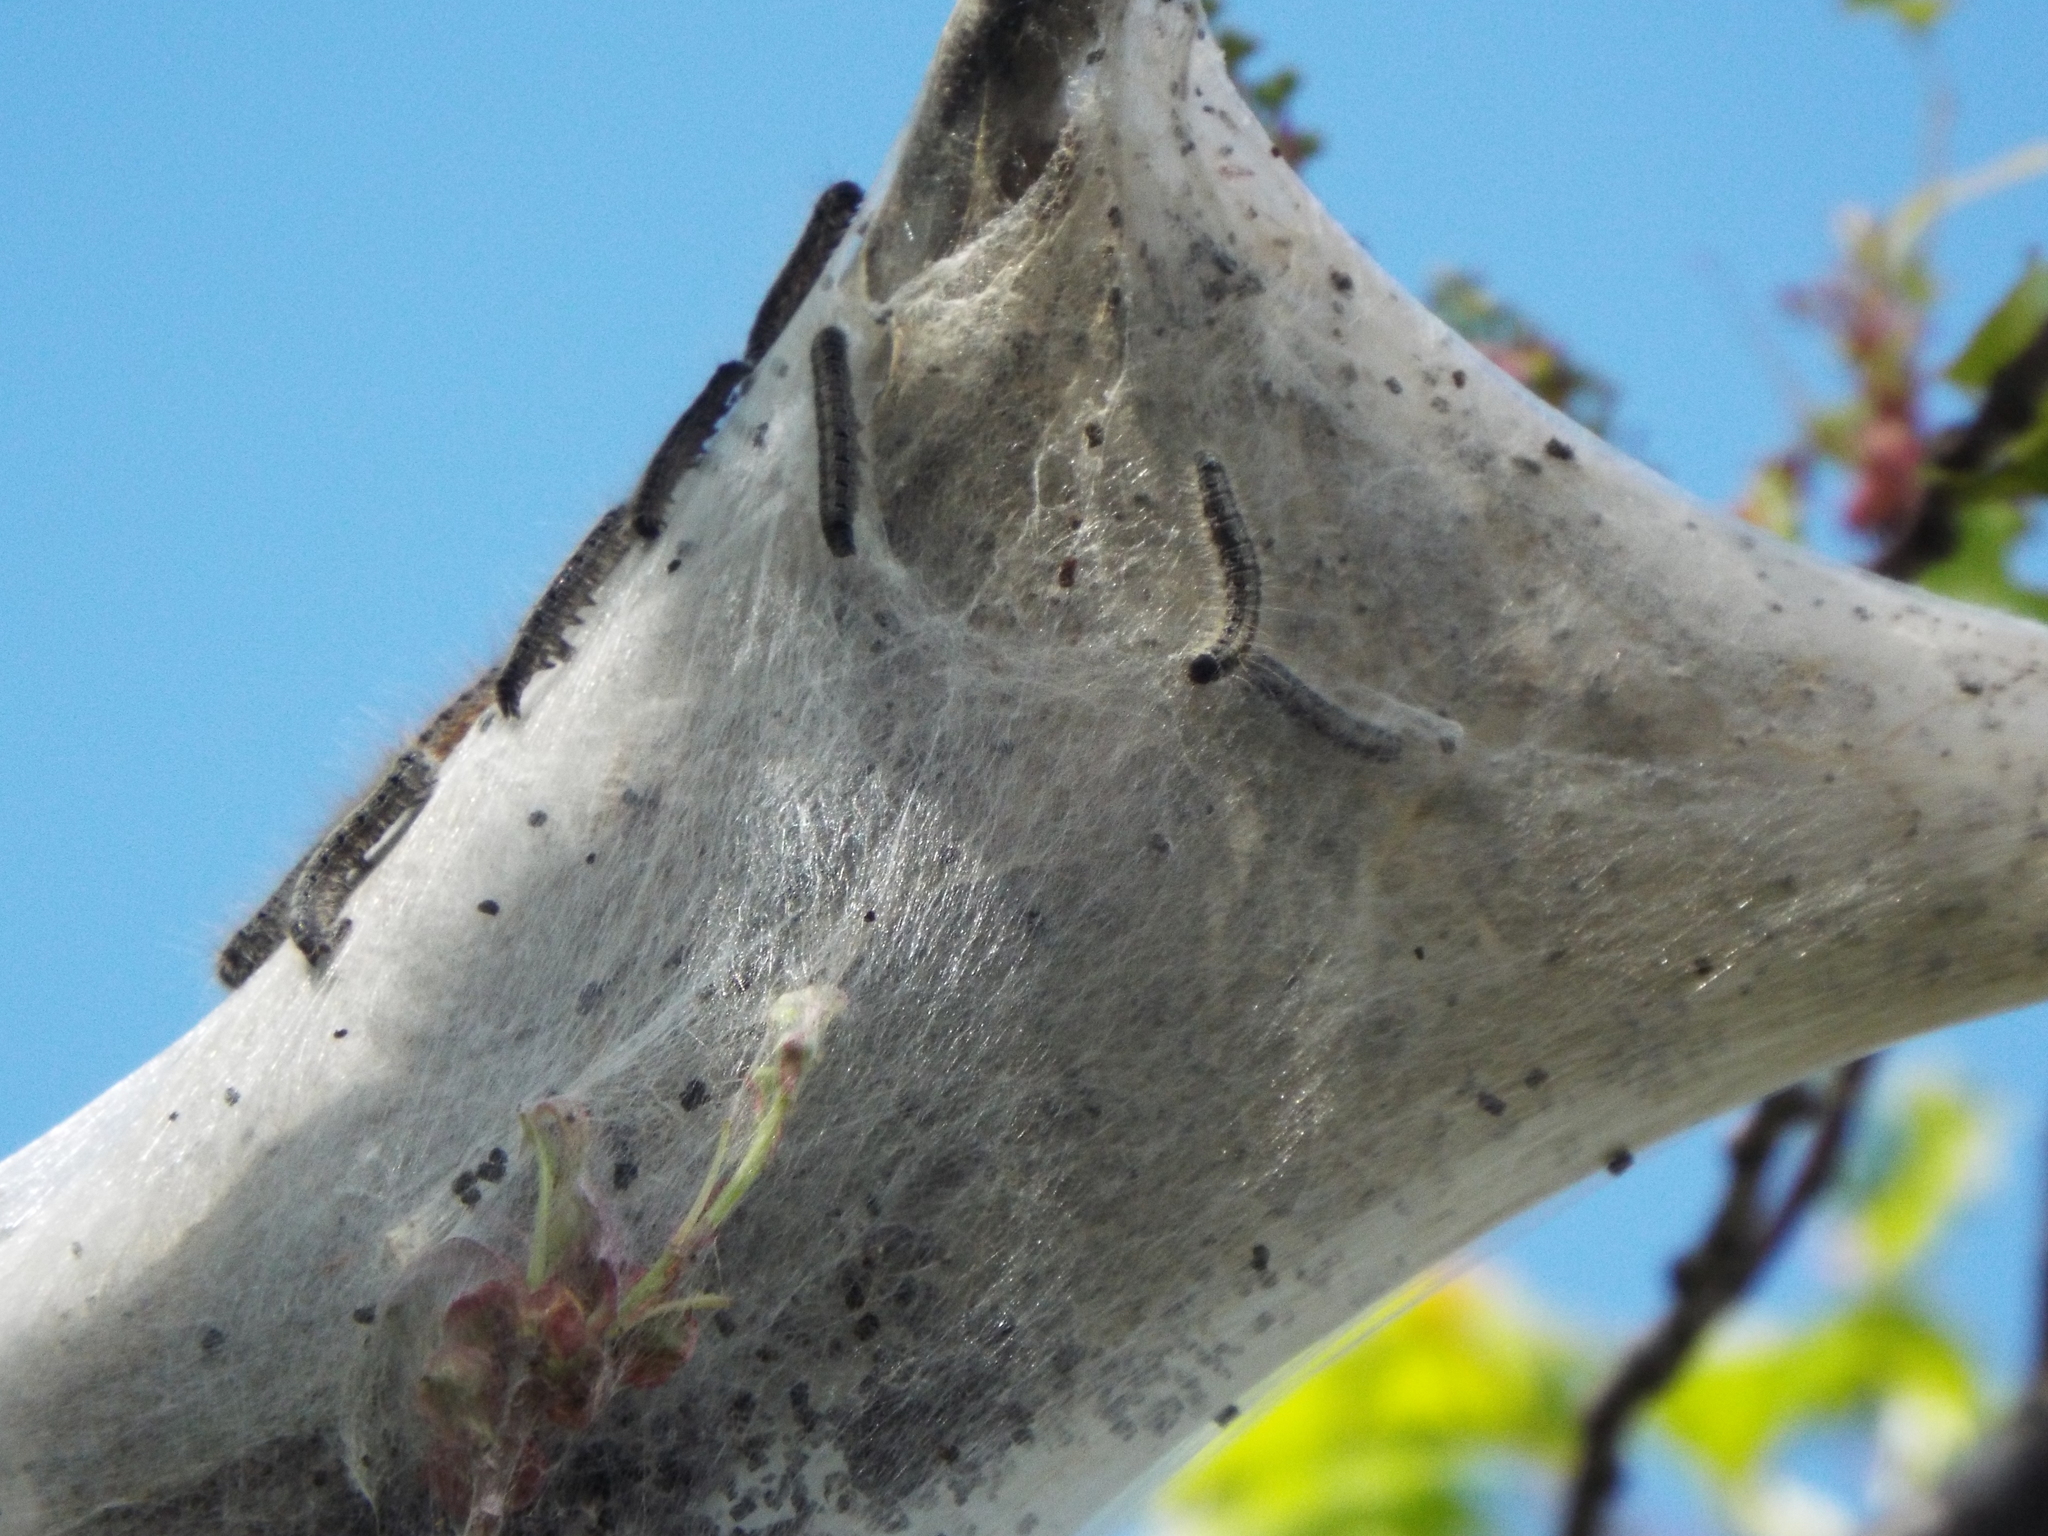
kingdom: Animalia
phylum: Arthropoda
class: Insecta
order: Lepidoptera
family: Lasiocampidae
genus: Malacosoma
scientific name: Malacosoma americana
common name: Eastern tent caterpillar moth
